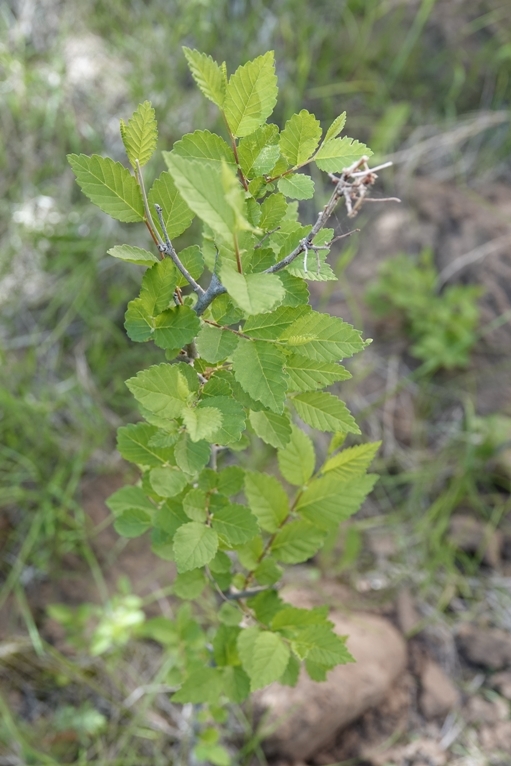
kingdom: Plantae
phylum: Tracheophyta
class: Magnoliopsida
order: Rosales
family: Ulmaceae
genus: Ulmus
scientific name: Ulmus pumila
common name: Siberian elm
